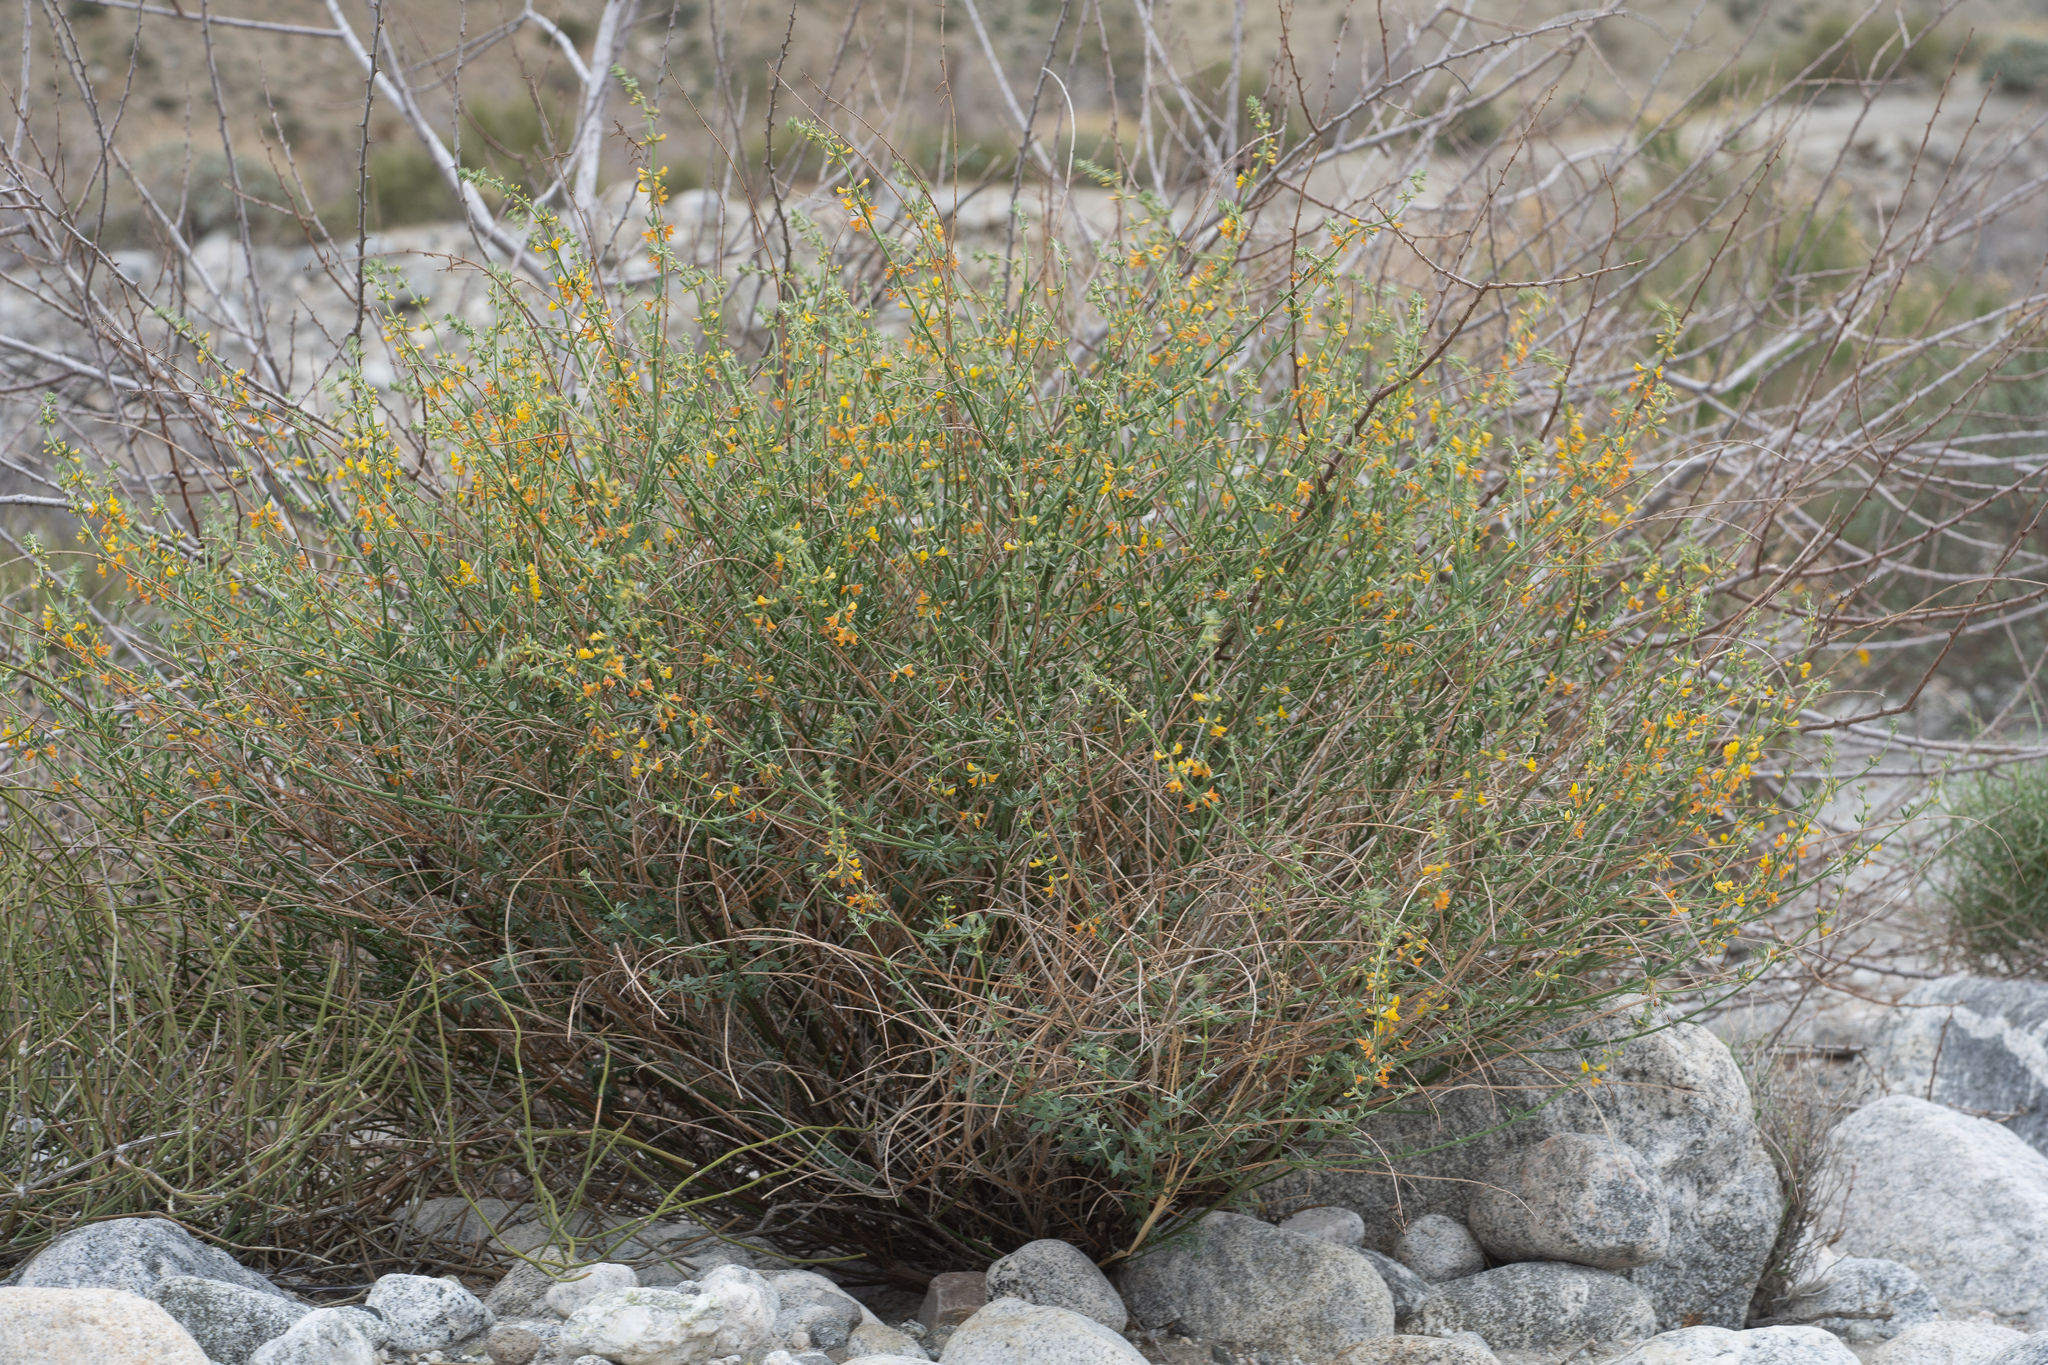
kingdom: Plantae
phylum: Tracheophyta
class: Magnoliopsida
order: Fabales
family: Fabaceae
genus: Acmispon
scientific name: Acmispon glaber
